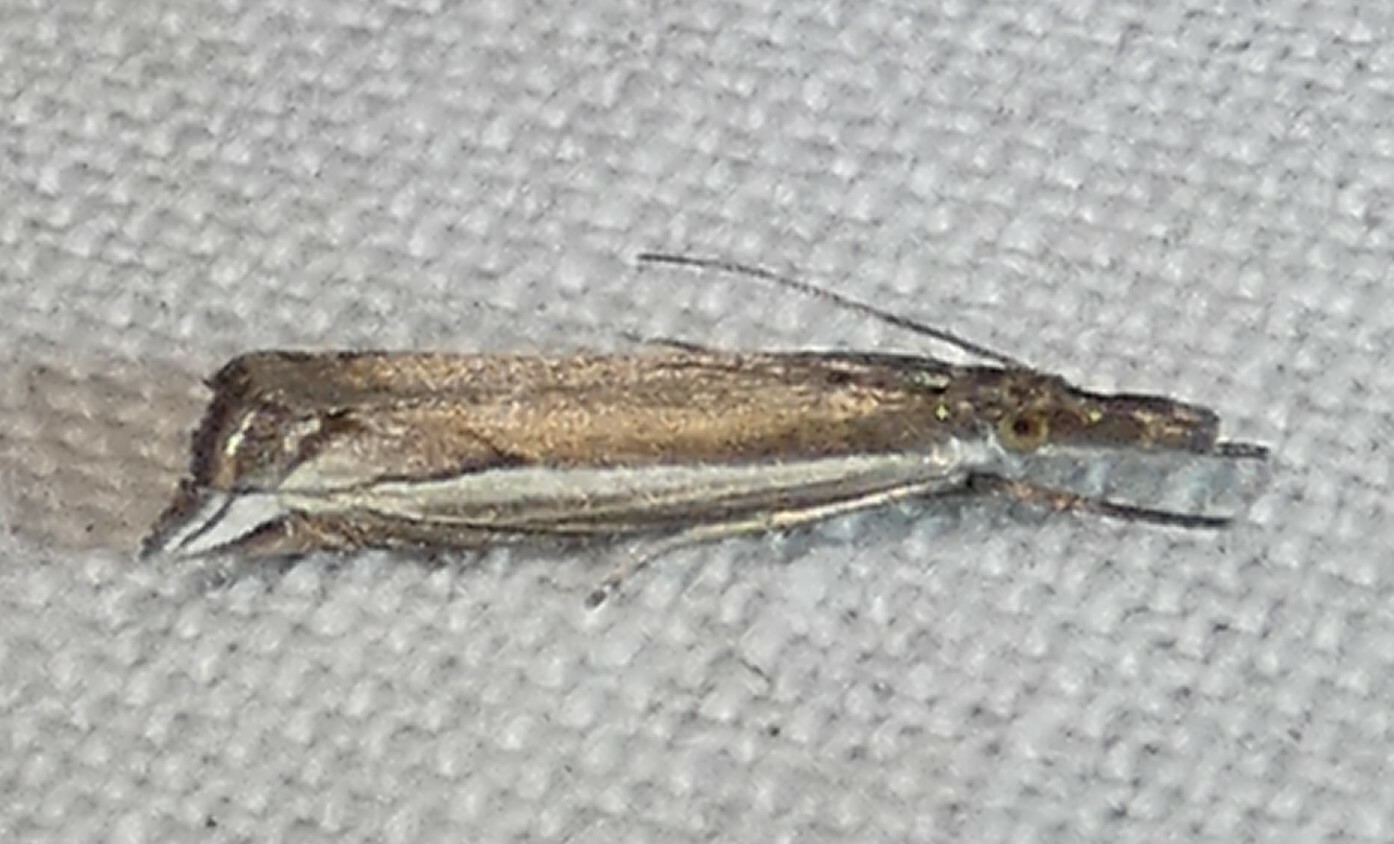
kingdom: Animalia
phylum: Arthropoda
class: Insecta
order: Lepidoptera
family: Crambidae
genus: Raphiptera
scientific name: Raphiptera argillaceellus
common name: Diminutive grass-veneer
